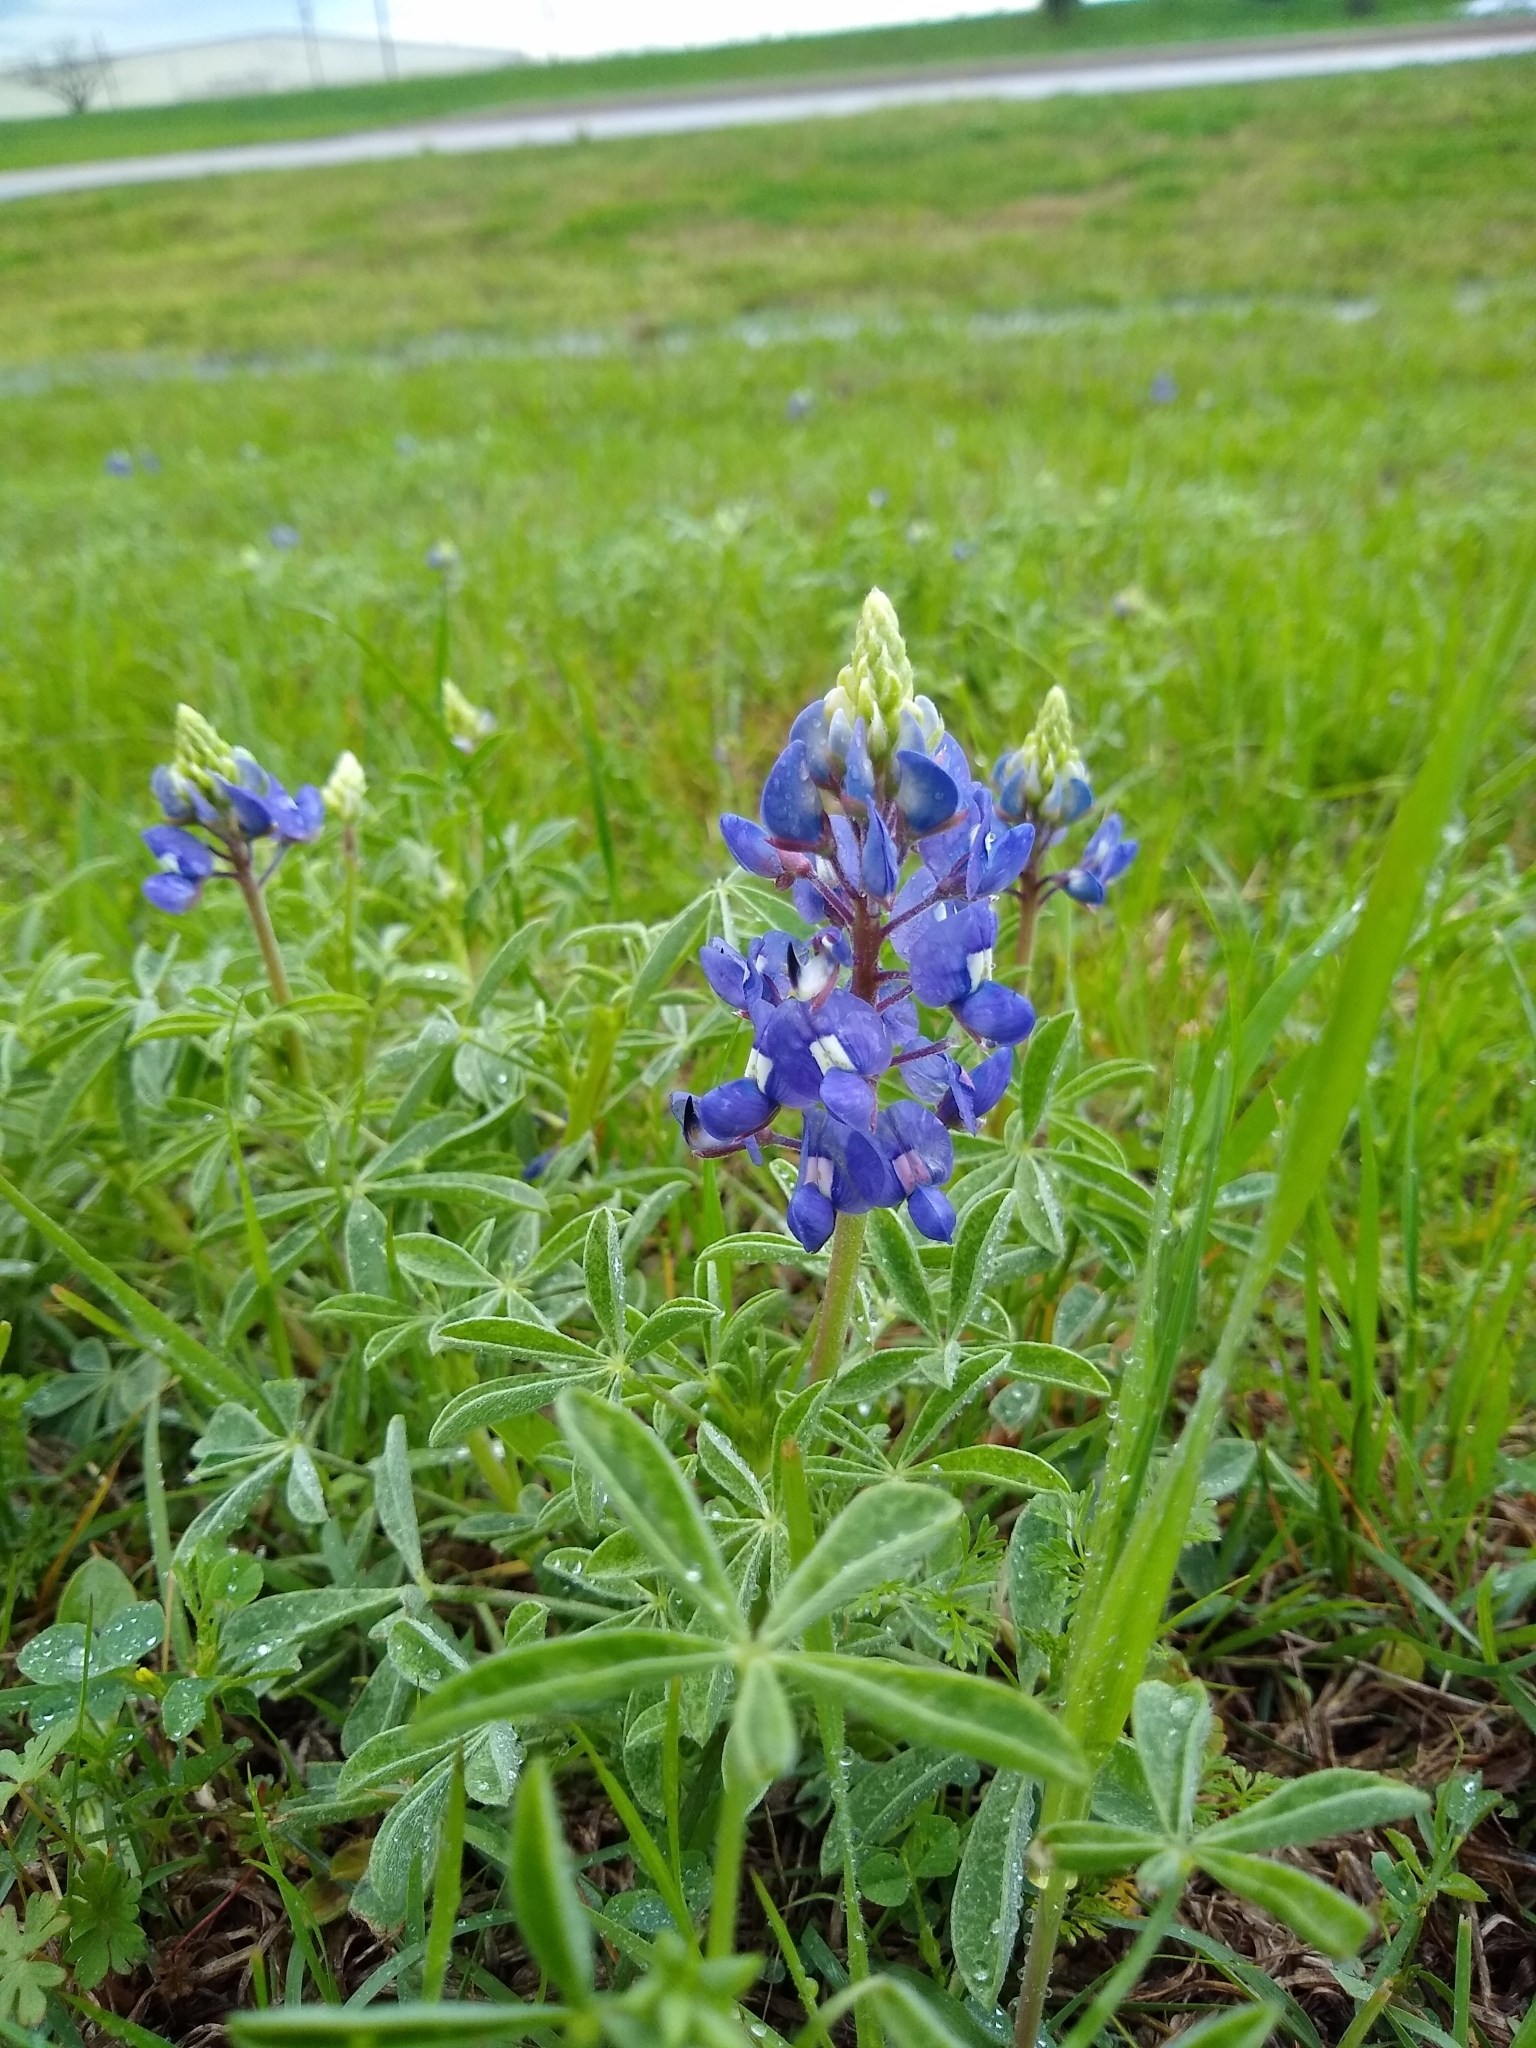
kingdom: Plantae
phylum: Tracheophyta
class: Magnoliopsida
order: Fabales
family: Fabaceae
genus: Lupinus
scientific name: Lupinus texensis
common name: Texas bluebonnet
